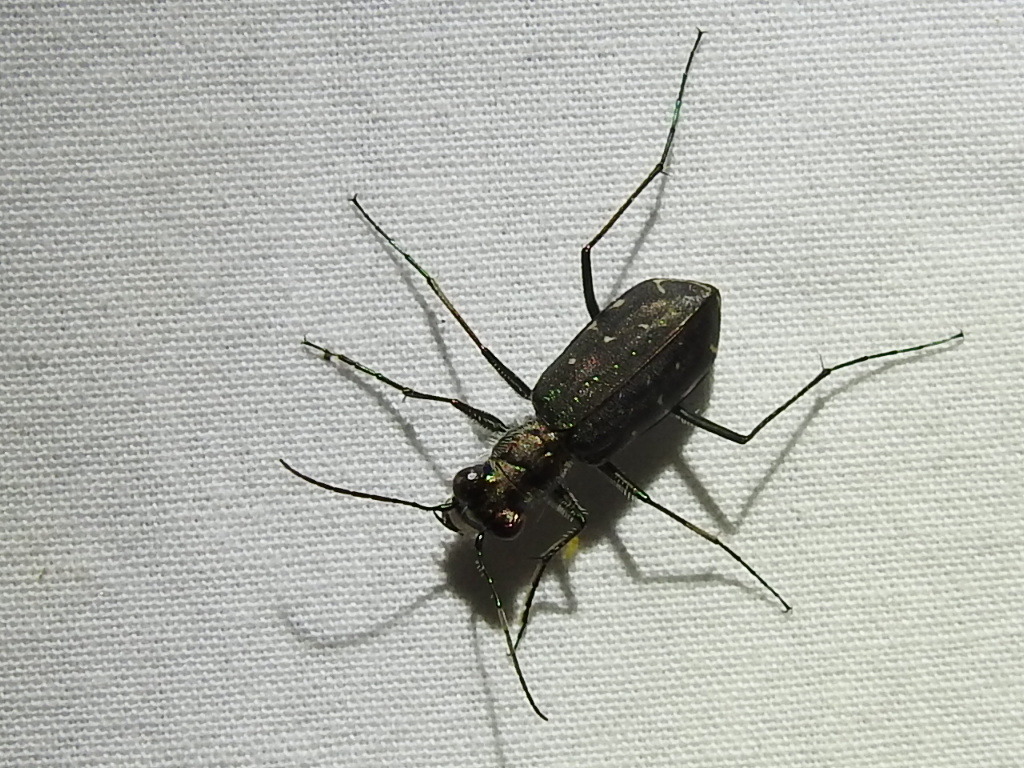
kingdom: Animalia
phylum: Arthropoda
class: Insecta
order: Coleoptera
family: Carabidae
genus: Cicindela
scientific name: Cicindela punctulata
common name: Punctured tiger beetle
